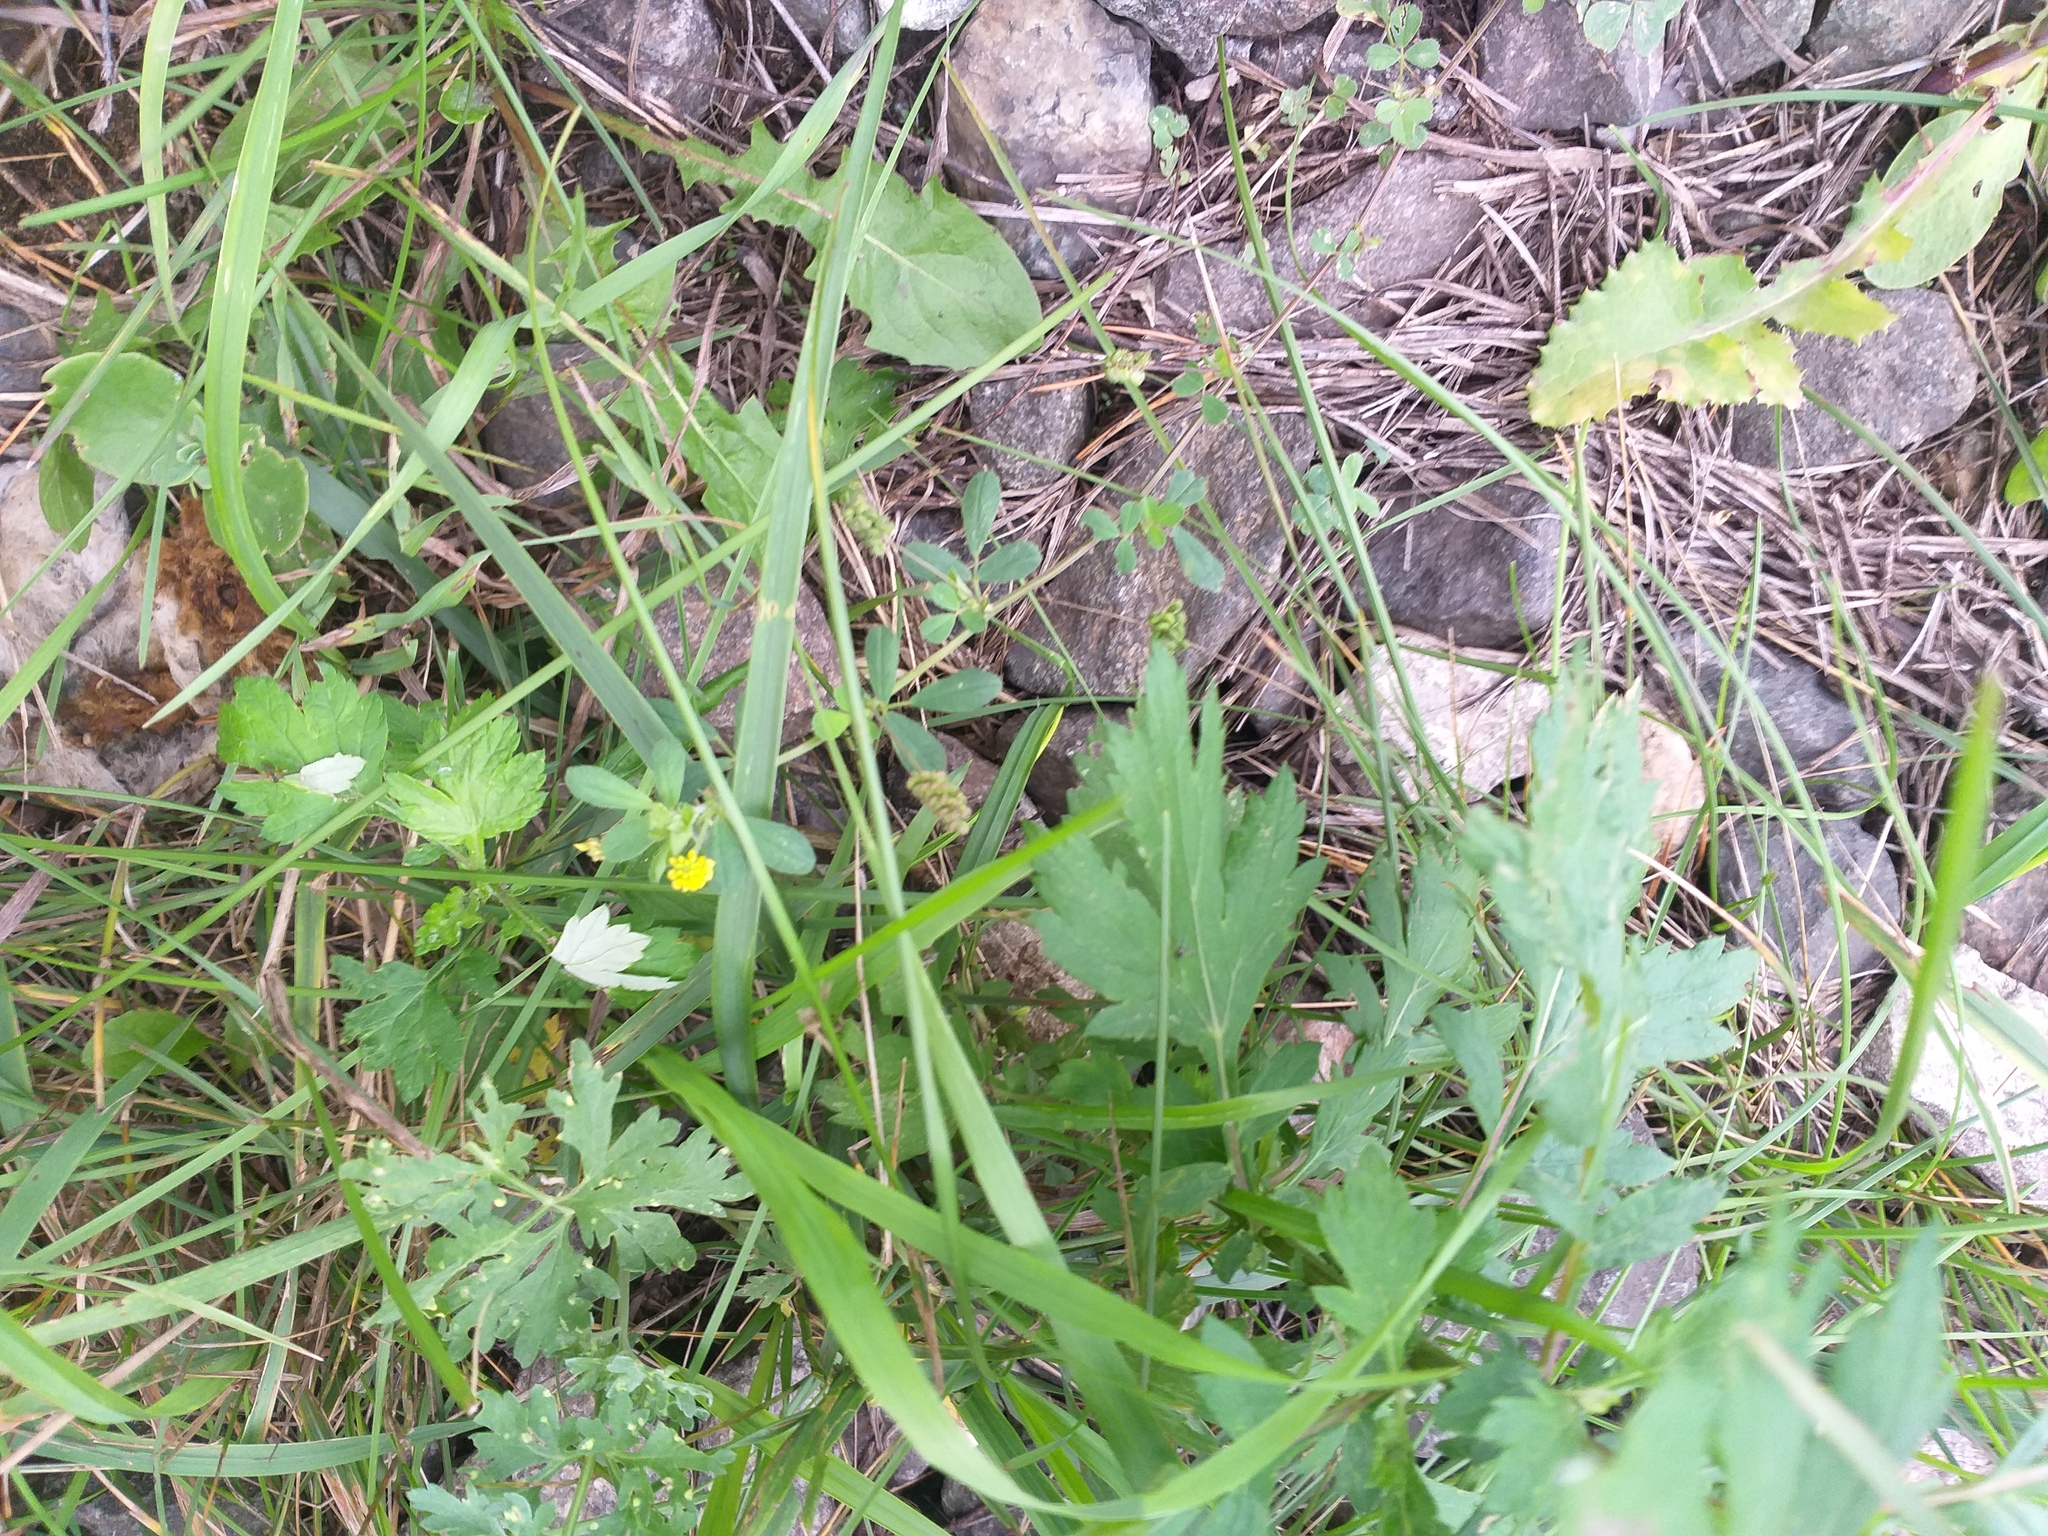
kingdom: Plantae
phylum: Tracheophyta
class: Magnoliopsida
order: Fabales
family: Fabaceae
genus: Medicago
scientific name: Medicago lupulina
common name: Black medick
